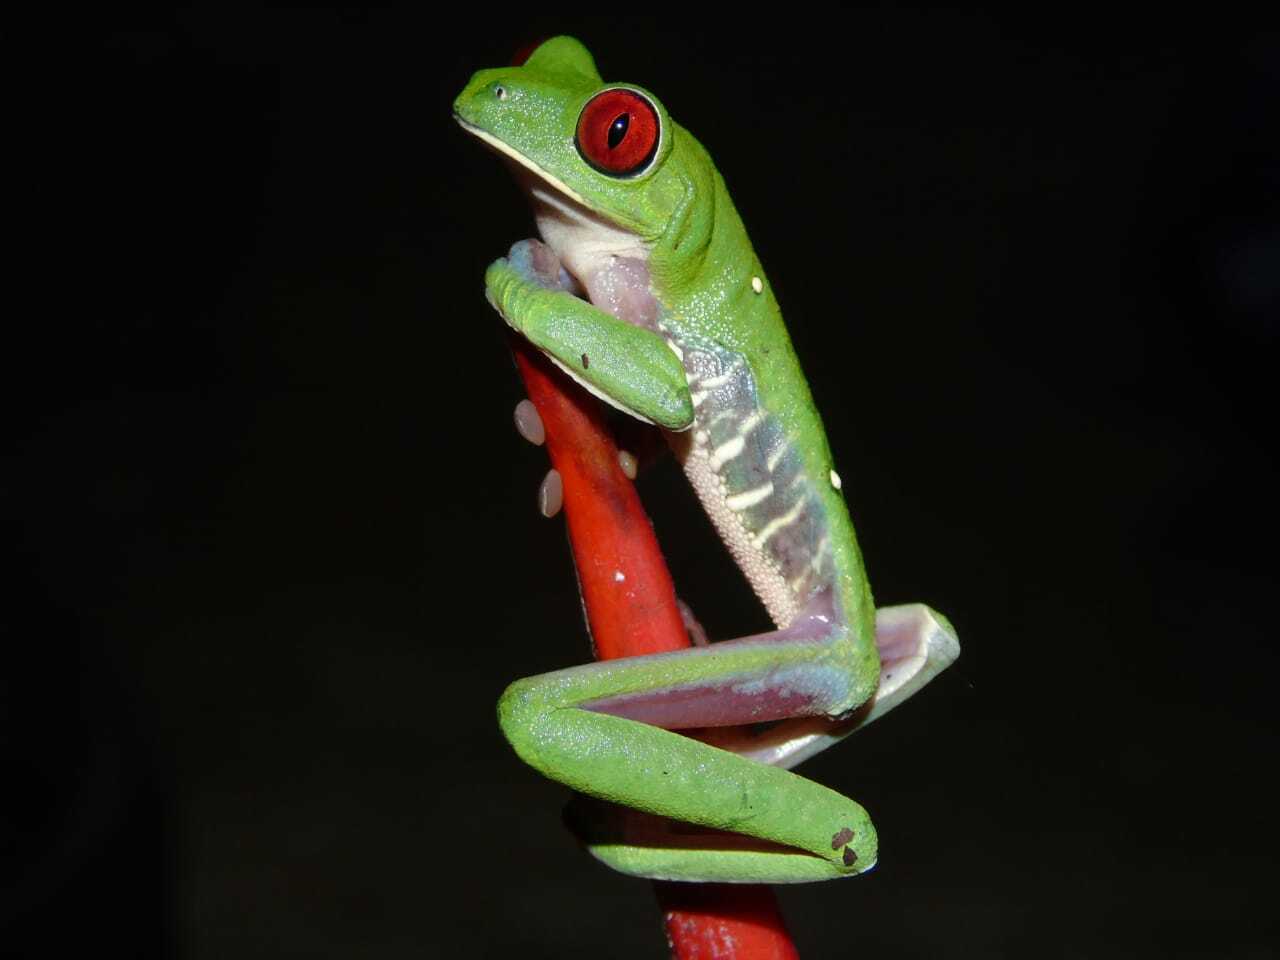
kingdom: Animalia
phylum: Chordata
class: Amphibia
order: Anura
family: Phyllomedusidae
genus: Agalychnis
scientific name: Agalychnis callidryas
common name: Red-eyed treefrog
